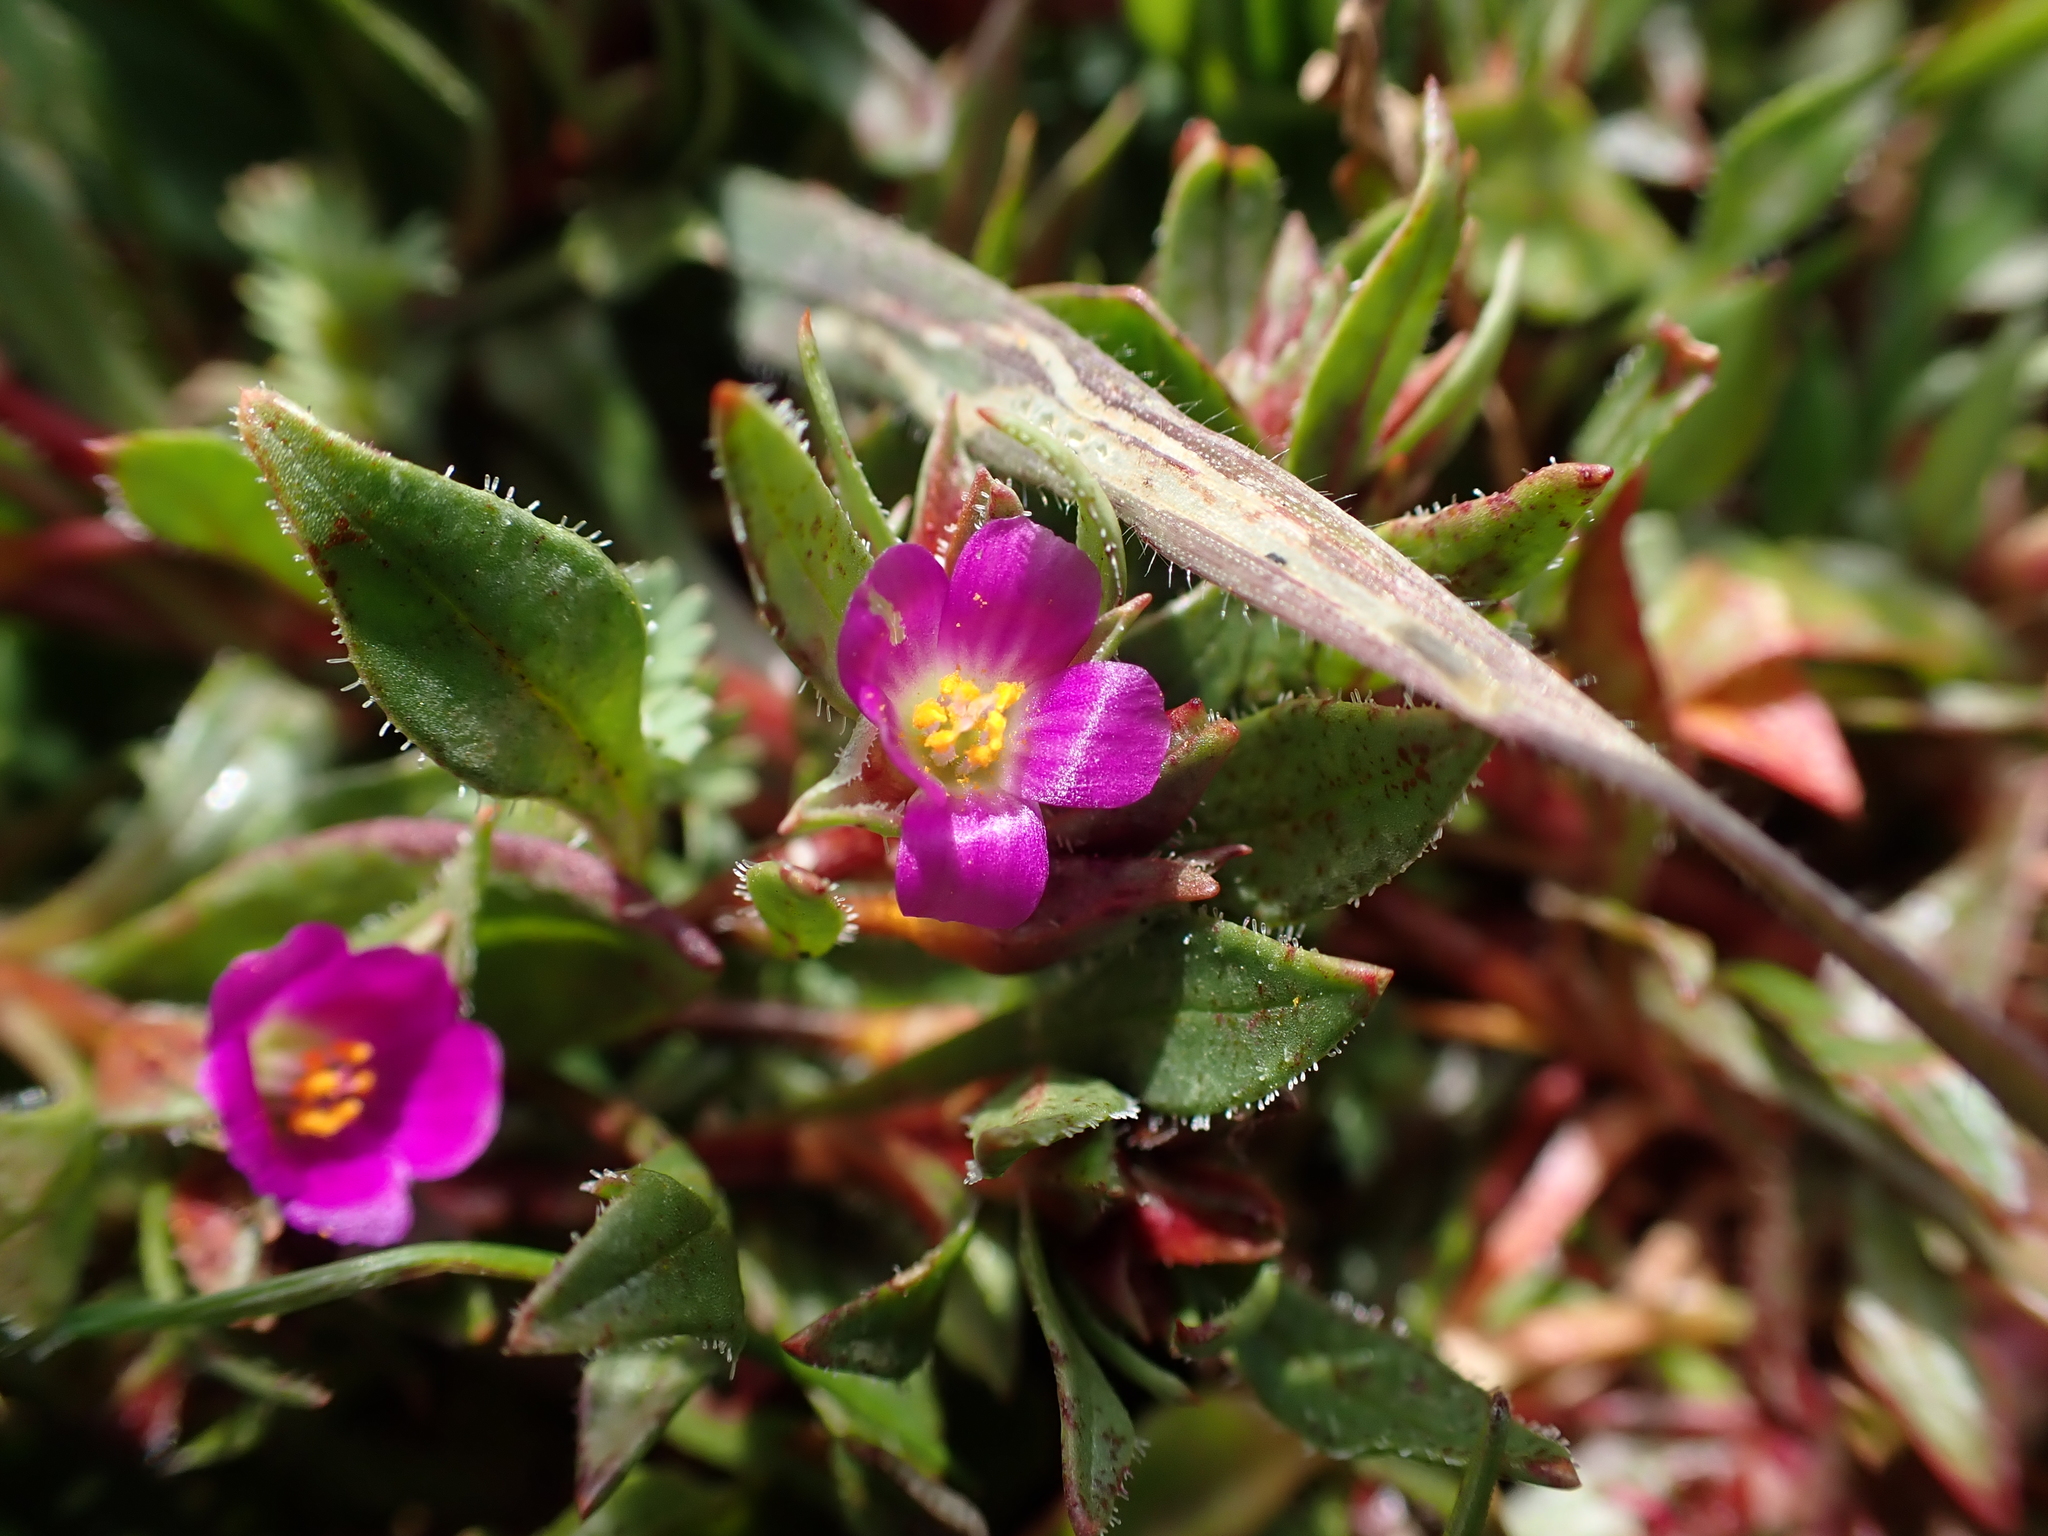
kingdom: Plantae
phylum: Tracheophyta
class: Magnoliopsida
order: Caryophyllales
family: Montiaceae
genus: Calandrinia
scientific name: Calandrinia menziesii
